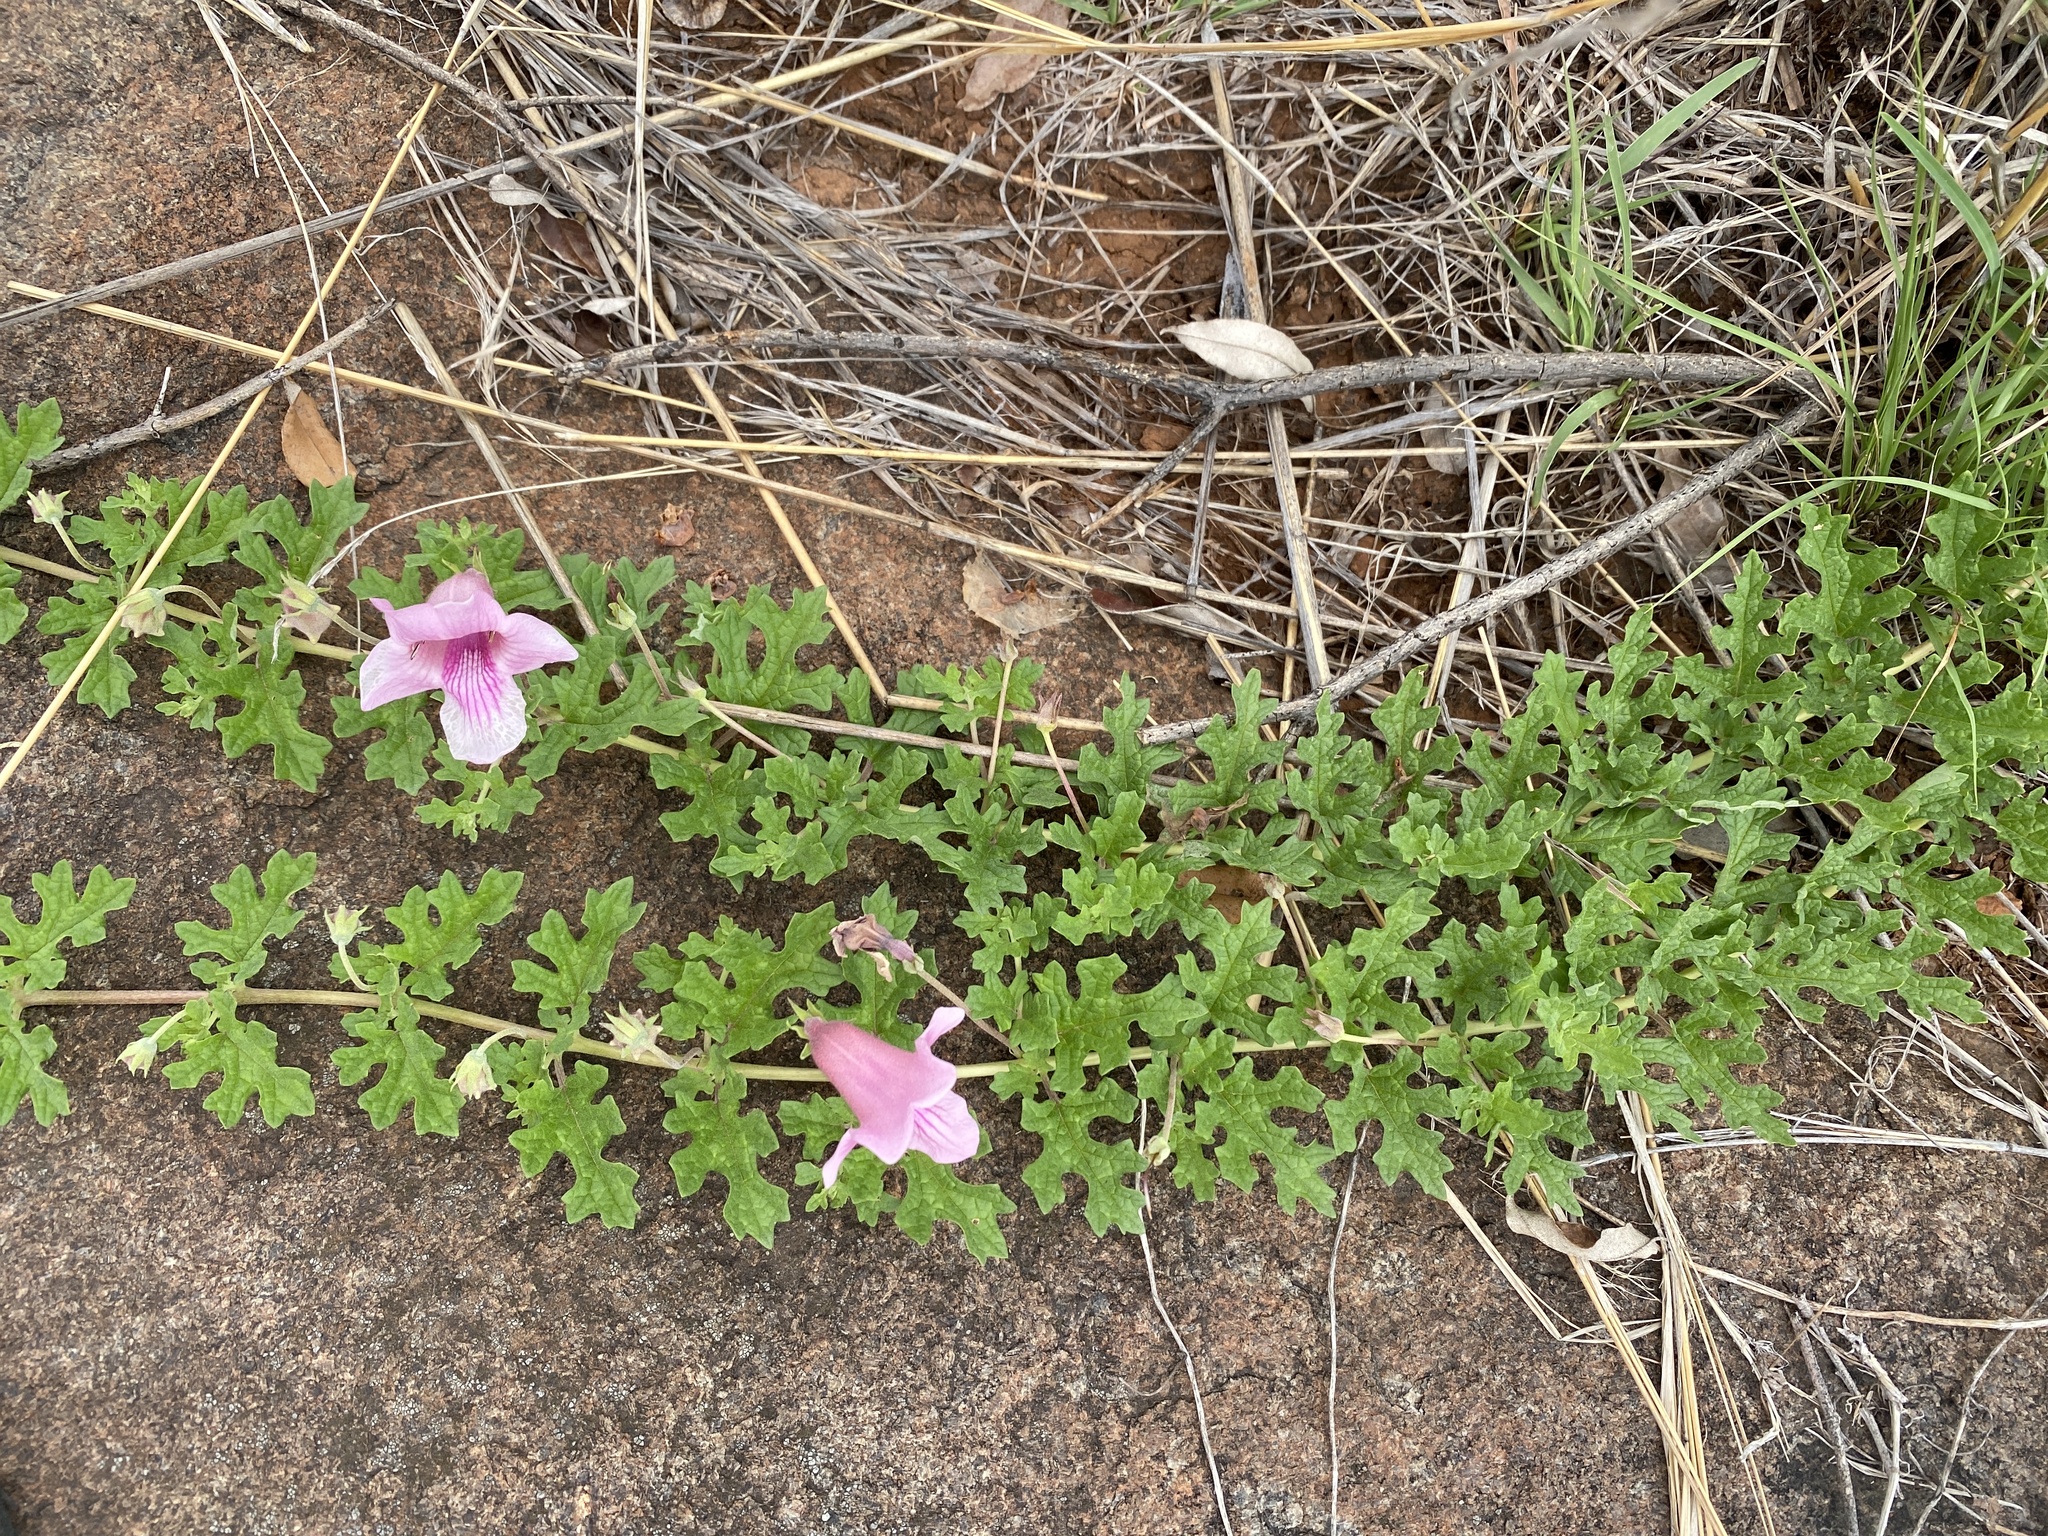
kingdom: Plantae
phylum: Tracheophyta
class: Magnoliopsida
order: Lamiales
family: Pedaliaceae
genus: Dicerocaryum
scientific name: Dicerocaryum senecioides
